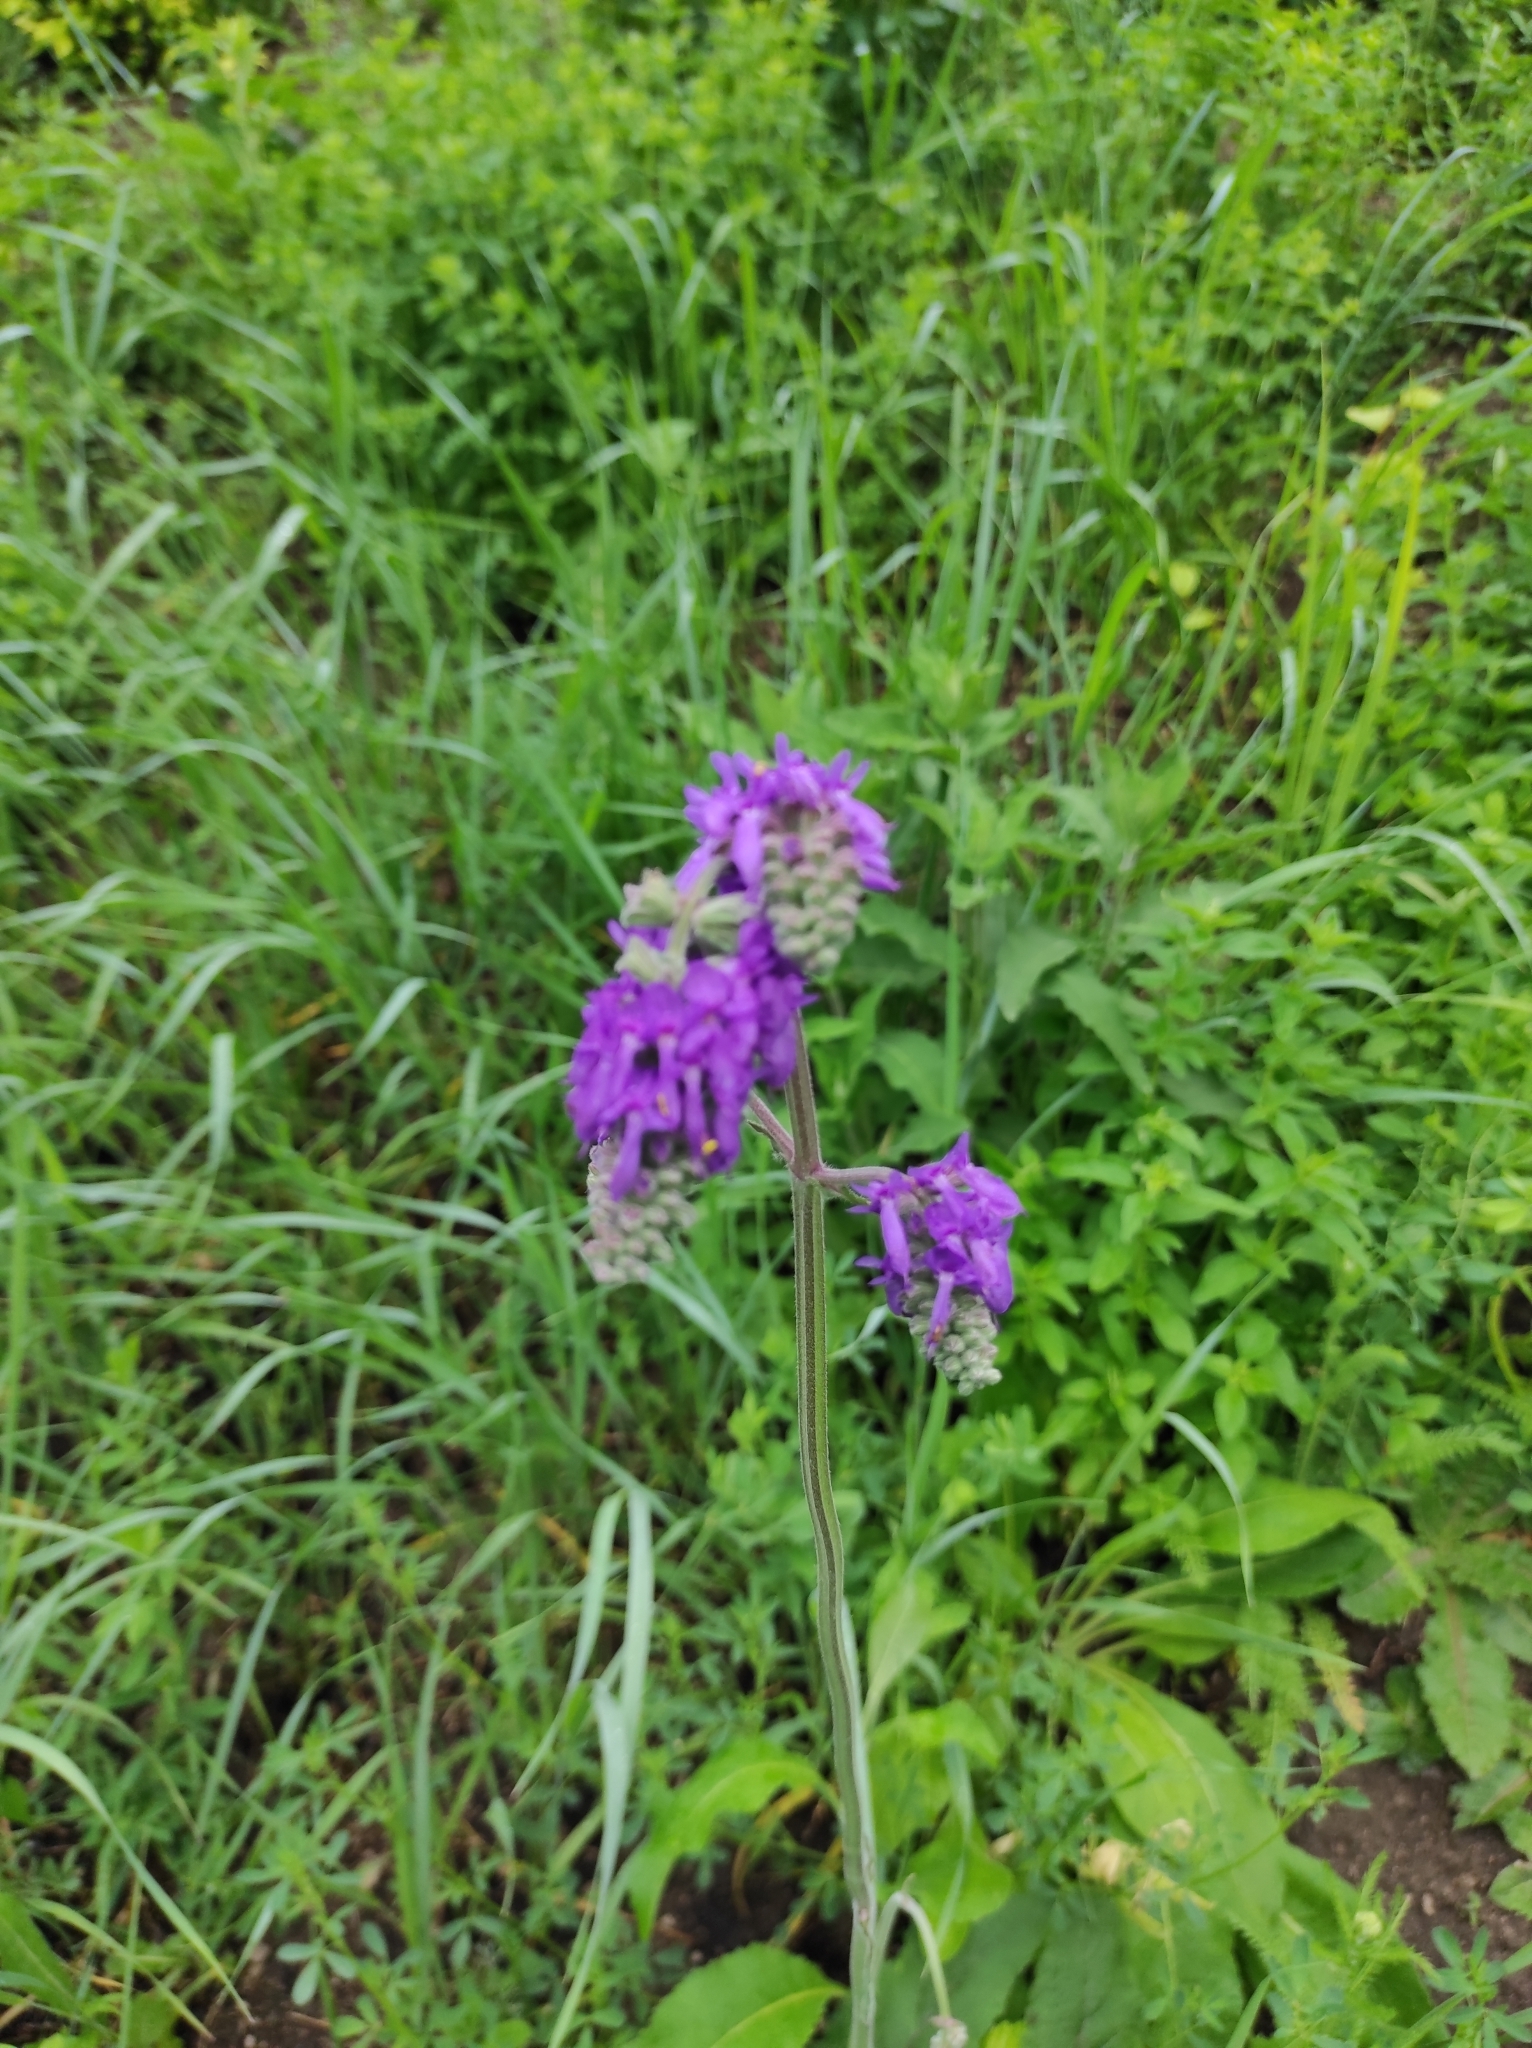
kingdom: Plantae
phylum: Tracheophyta
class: Magnoliopsida
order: Lamiales
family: Lamiaceae
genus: Salvia
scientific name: Salvia nutans
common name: Nodding sage
